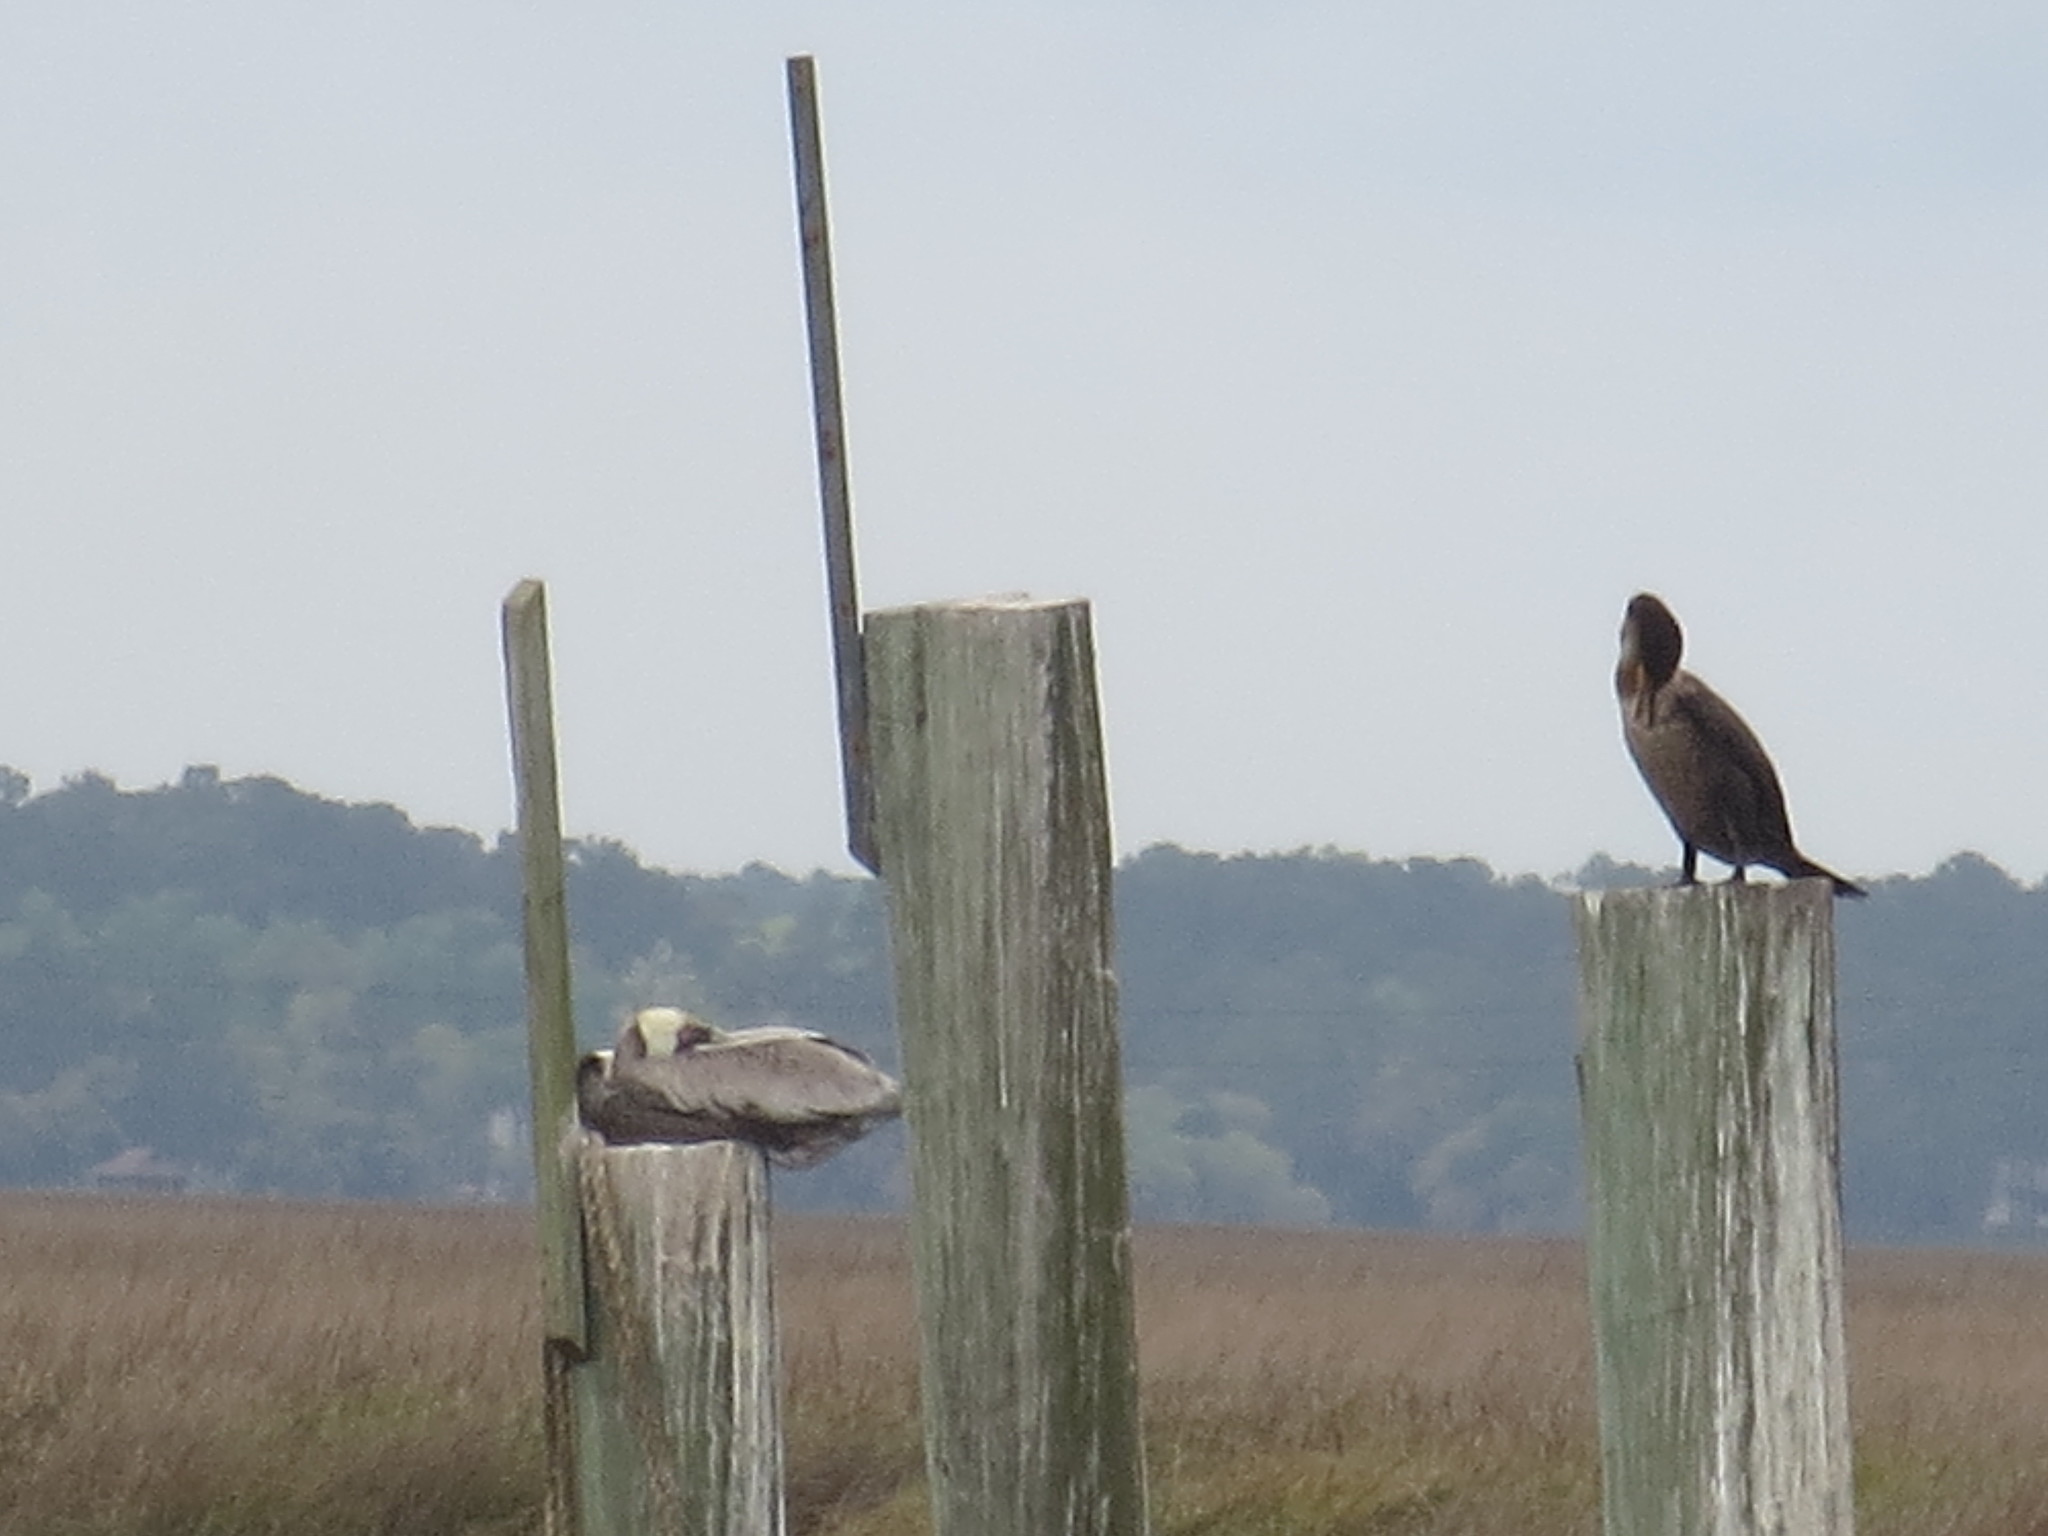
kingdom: Animalia
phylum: Chordata
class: Aves
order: Pelecaniformes
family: Pelecanidae
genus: Pelecanus
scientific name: Pelecanus occidentalis
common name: Brown pelican
